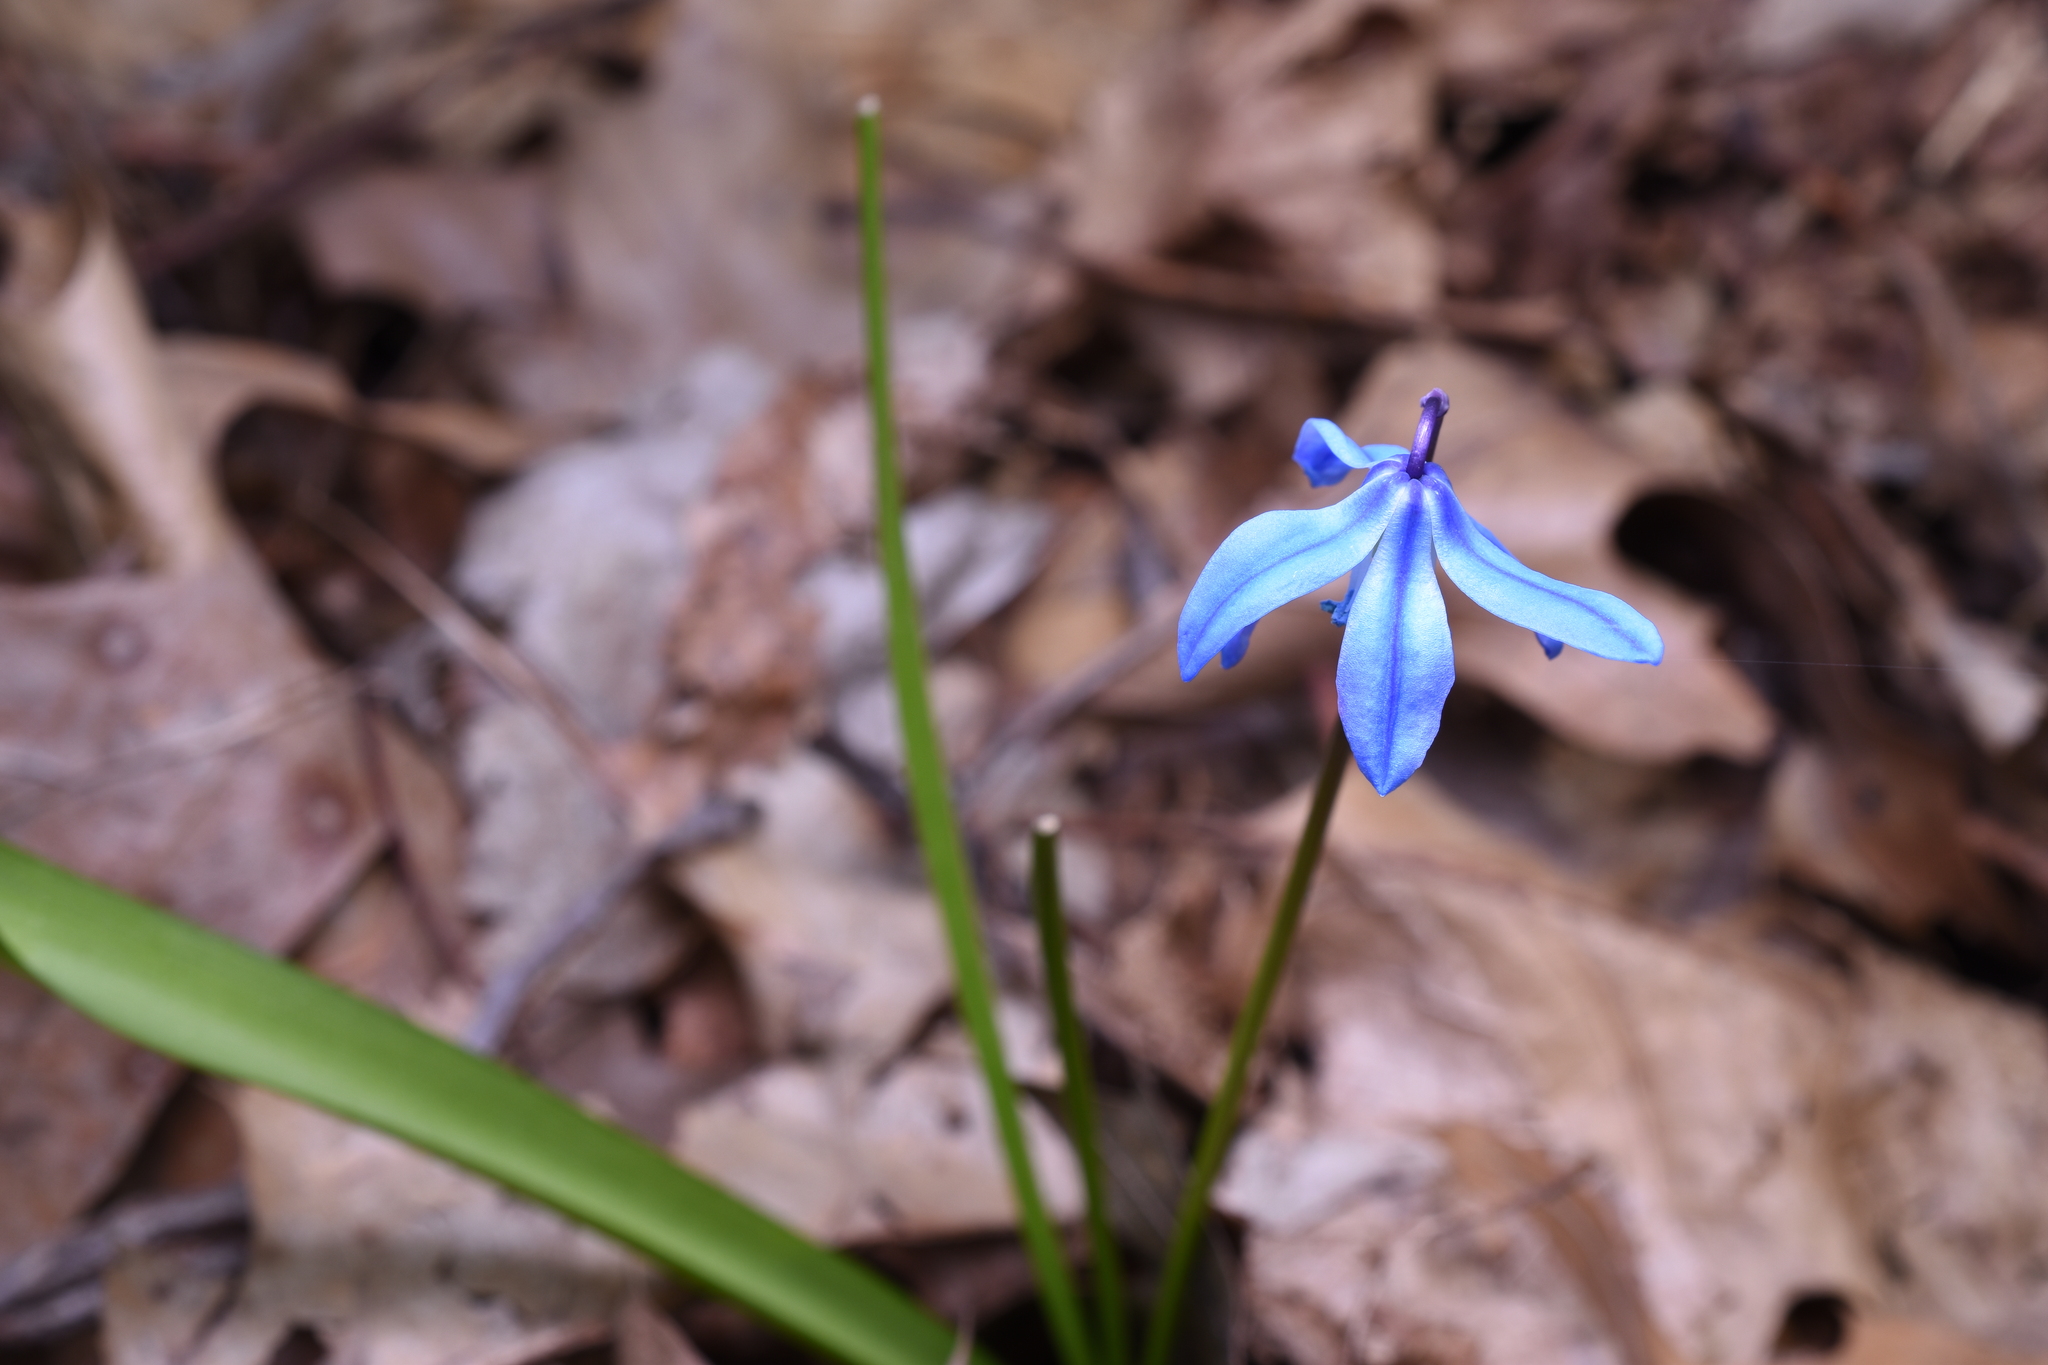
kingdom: Plantae
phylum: Tracheophyta
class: Liliopsida
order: Asparagales
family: Asparagaceae
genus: Scilla
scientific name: Scilla siberica
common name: Siberian squill
